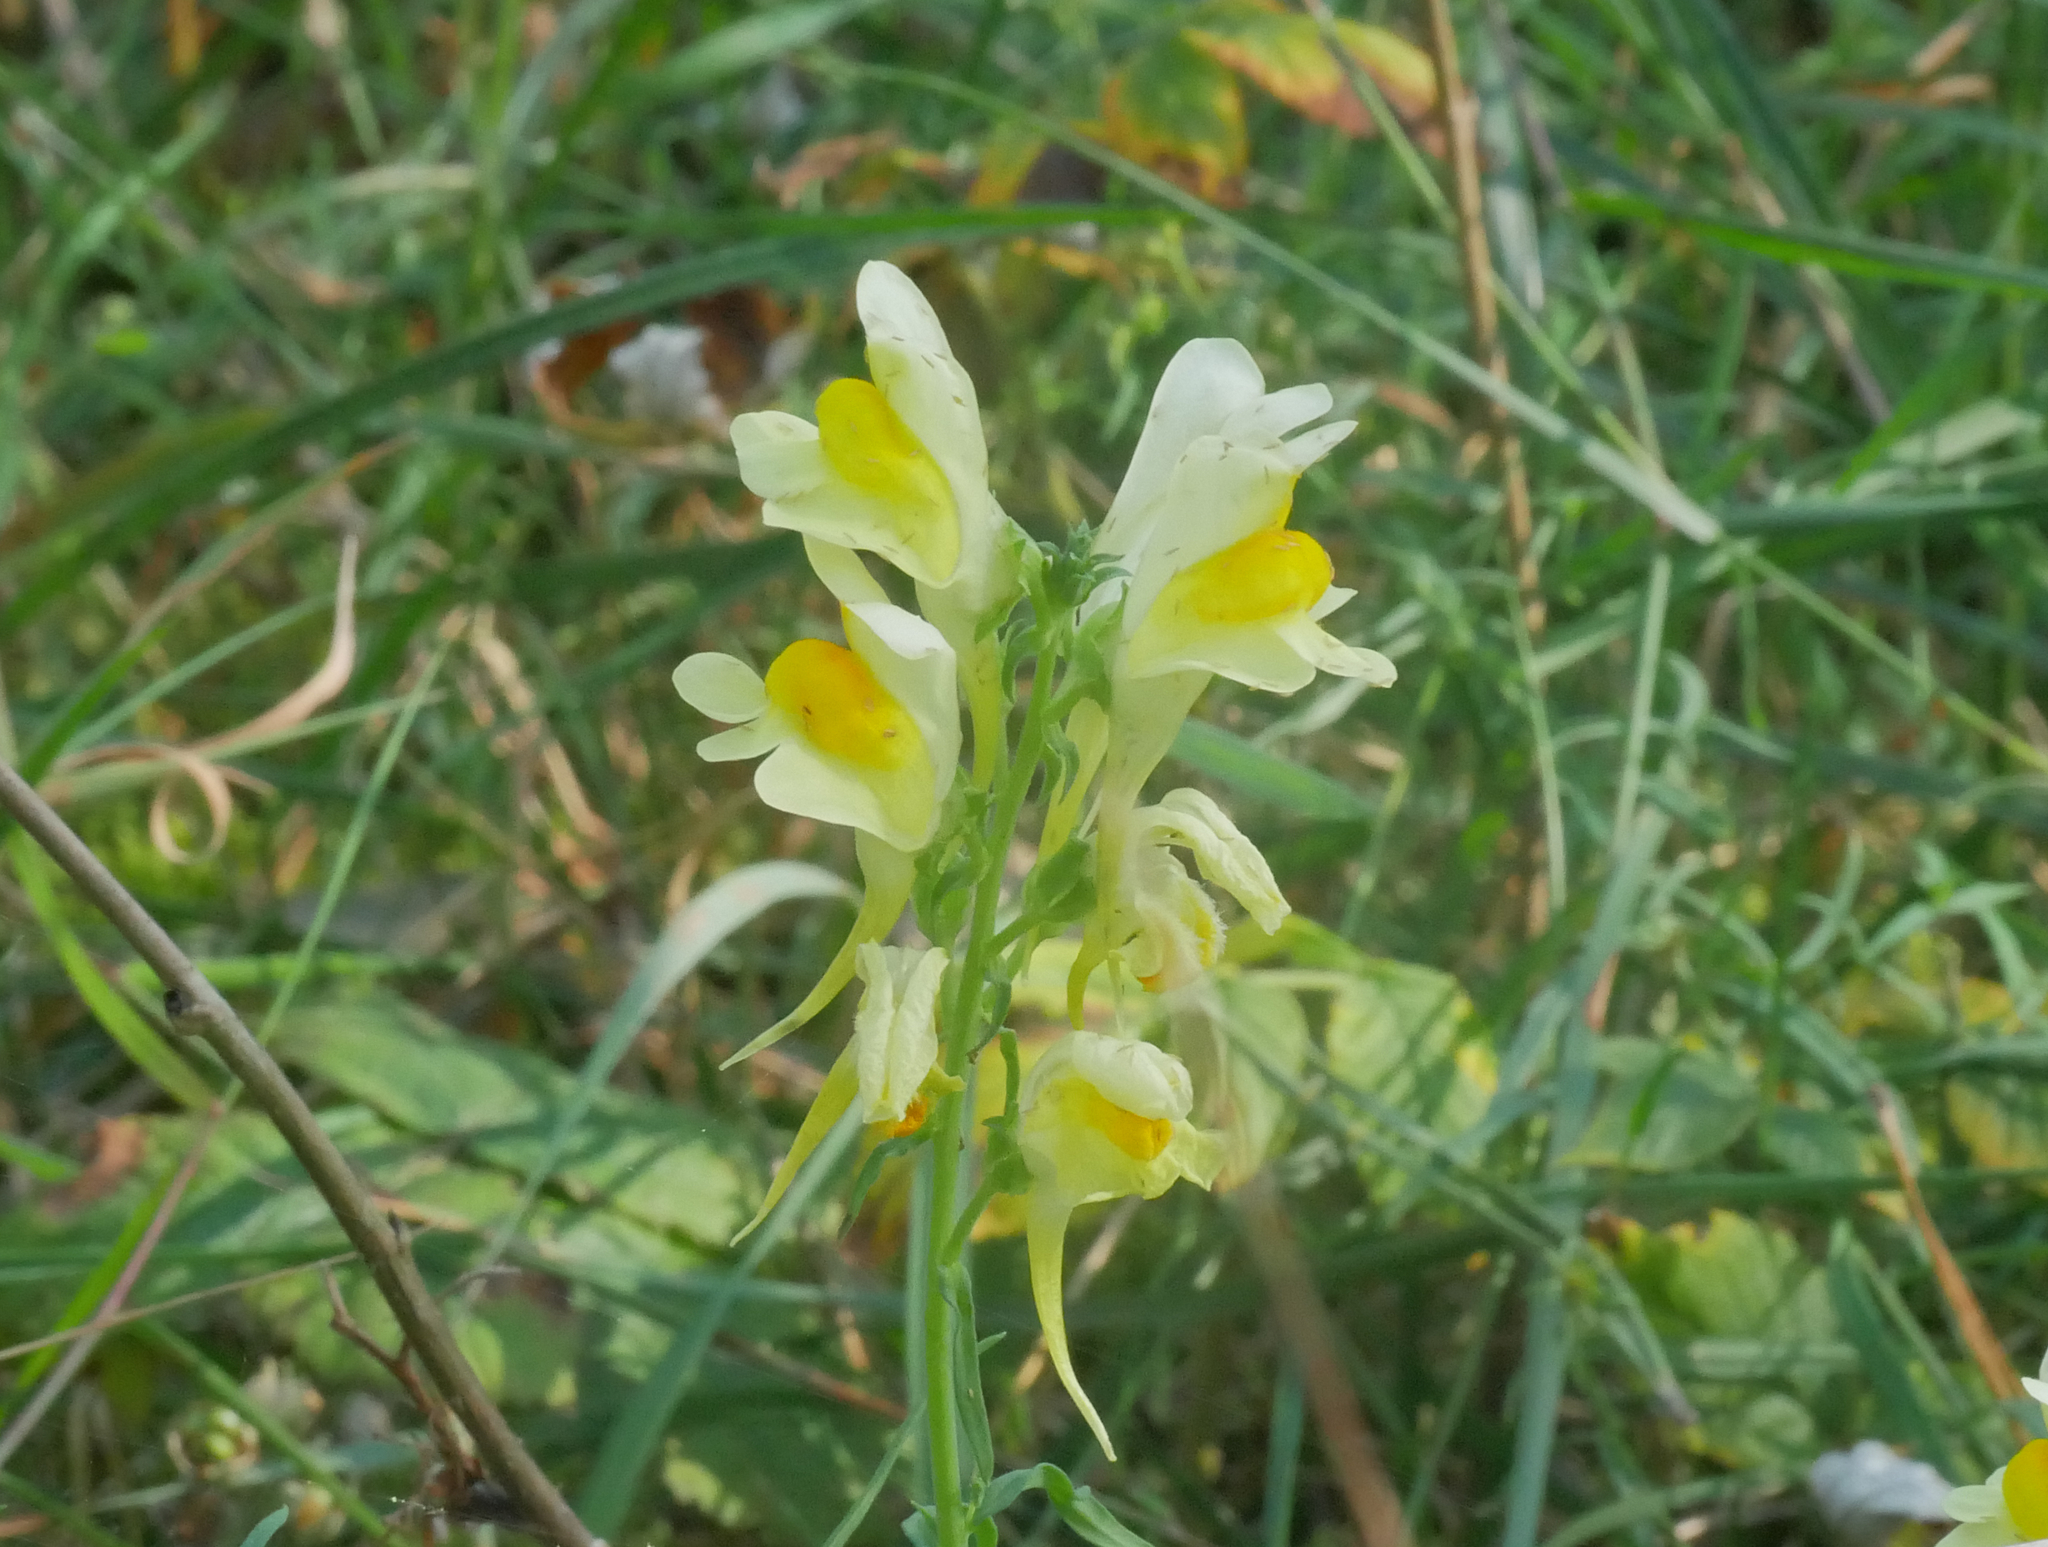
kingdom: Plantae
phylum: Tracheophyta
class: Magnoliopsida
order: Lamiales
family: Plantaginaceae
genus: Linaria
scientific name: Linaria vulgaris
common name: Butter and eggs
